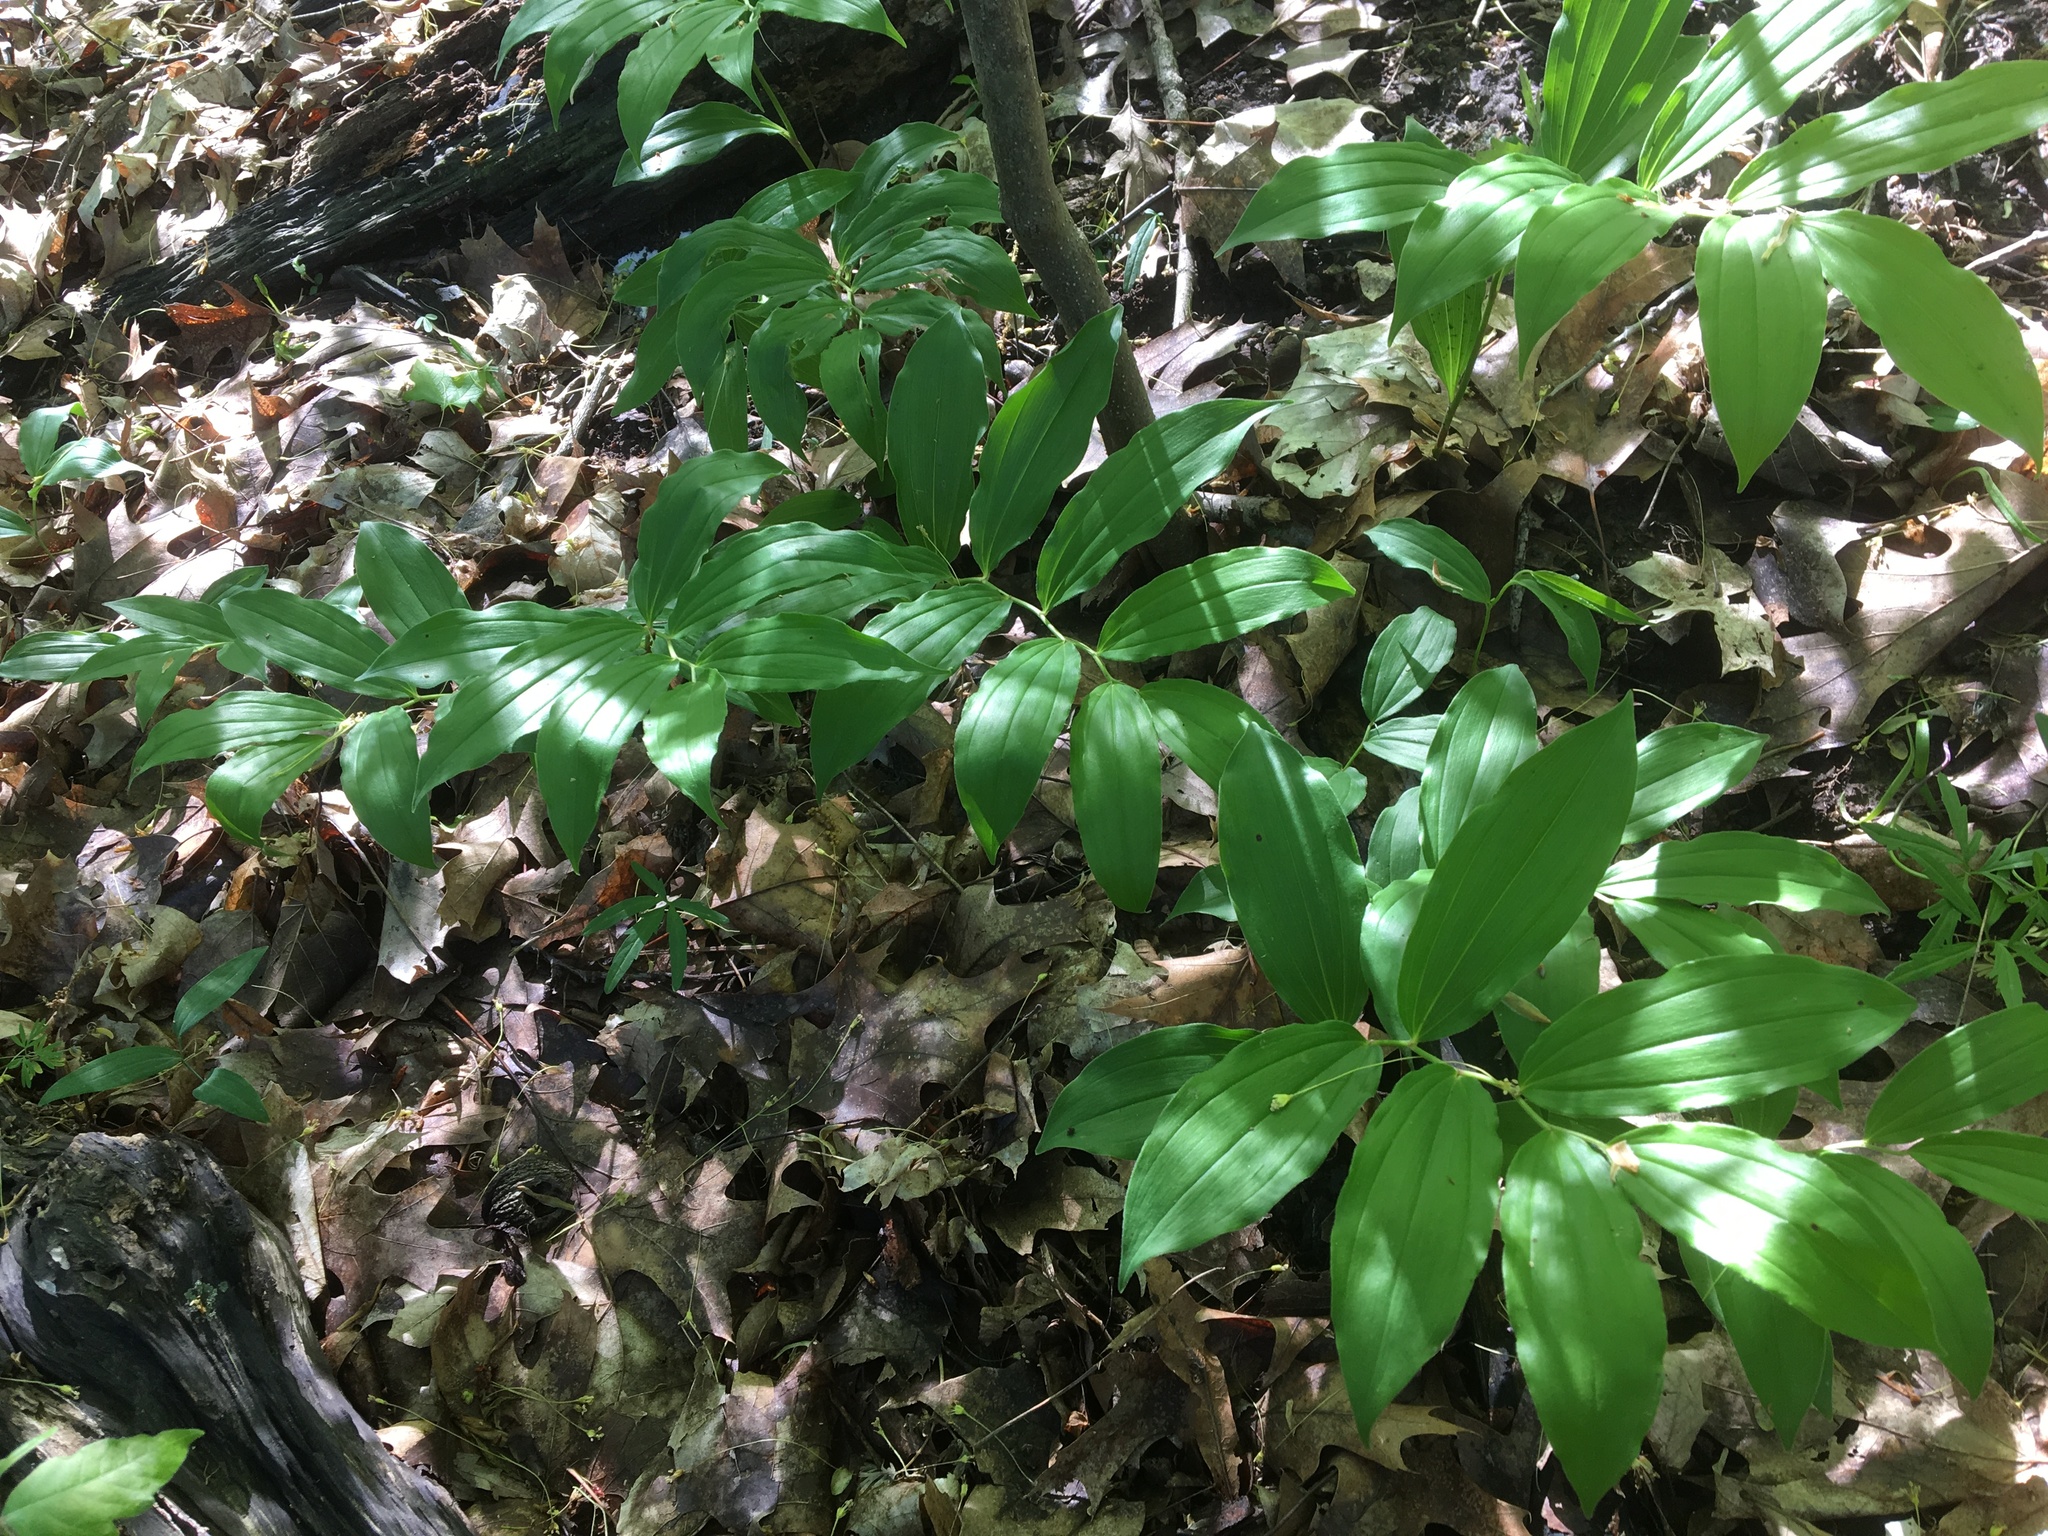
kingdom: Plantae
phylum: Tracheophyta
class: Liliopsida
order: Asparagales
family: Asparagaceae
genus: Maianthemum
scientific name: Maianthemum racemosum
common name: False spikenard
